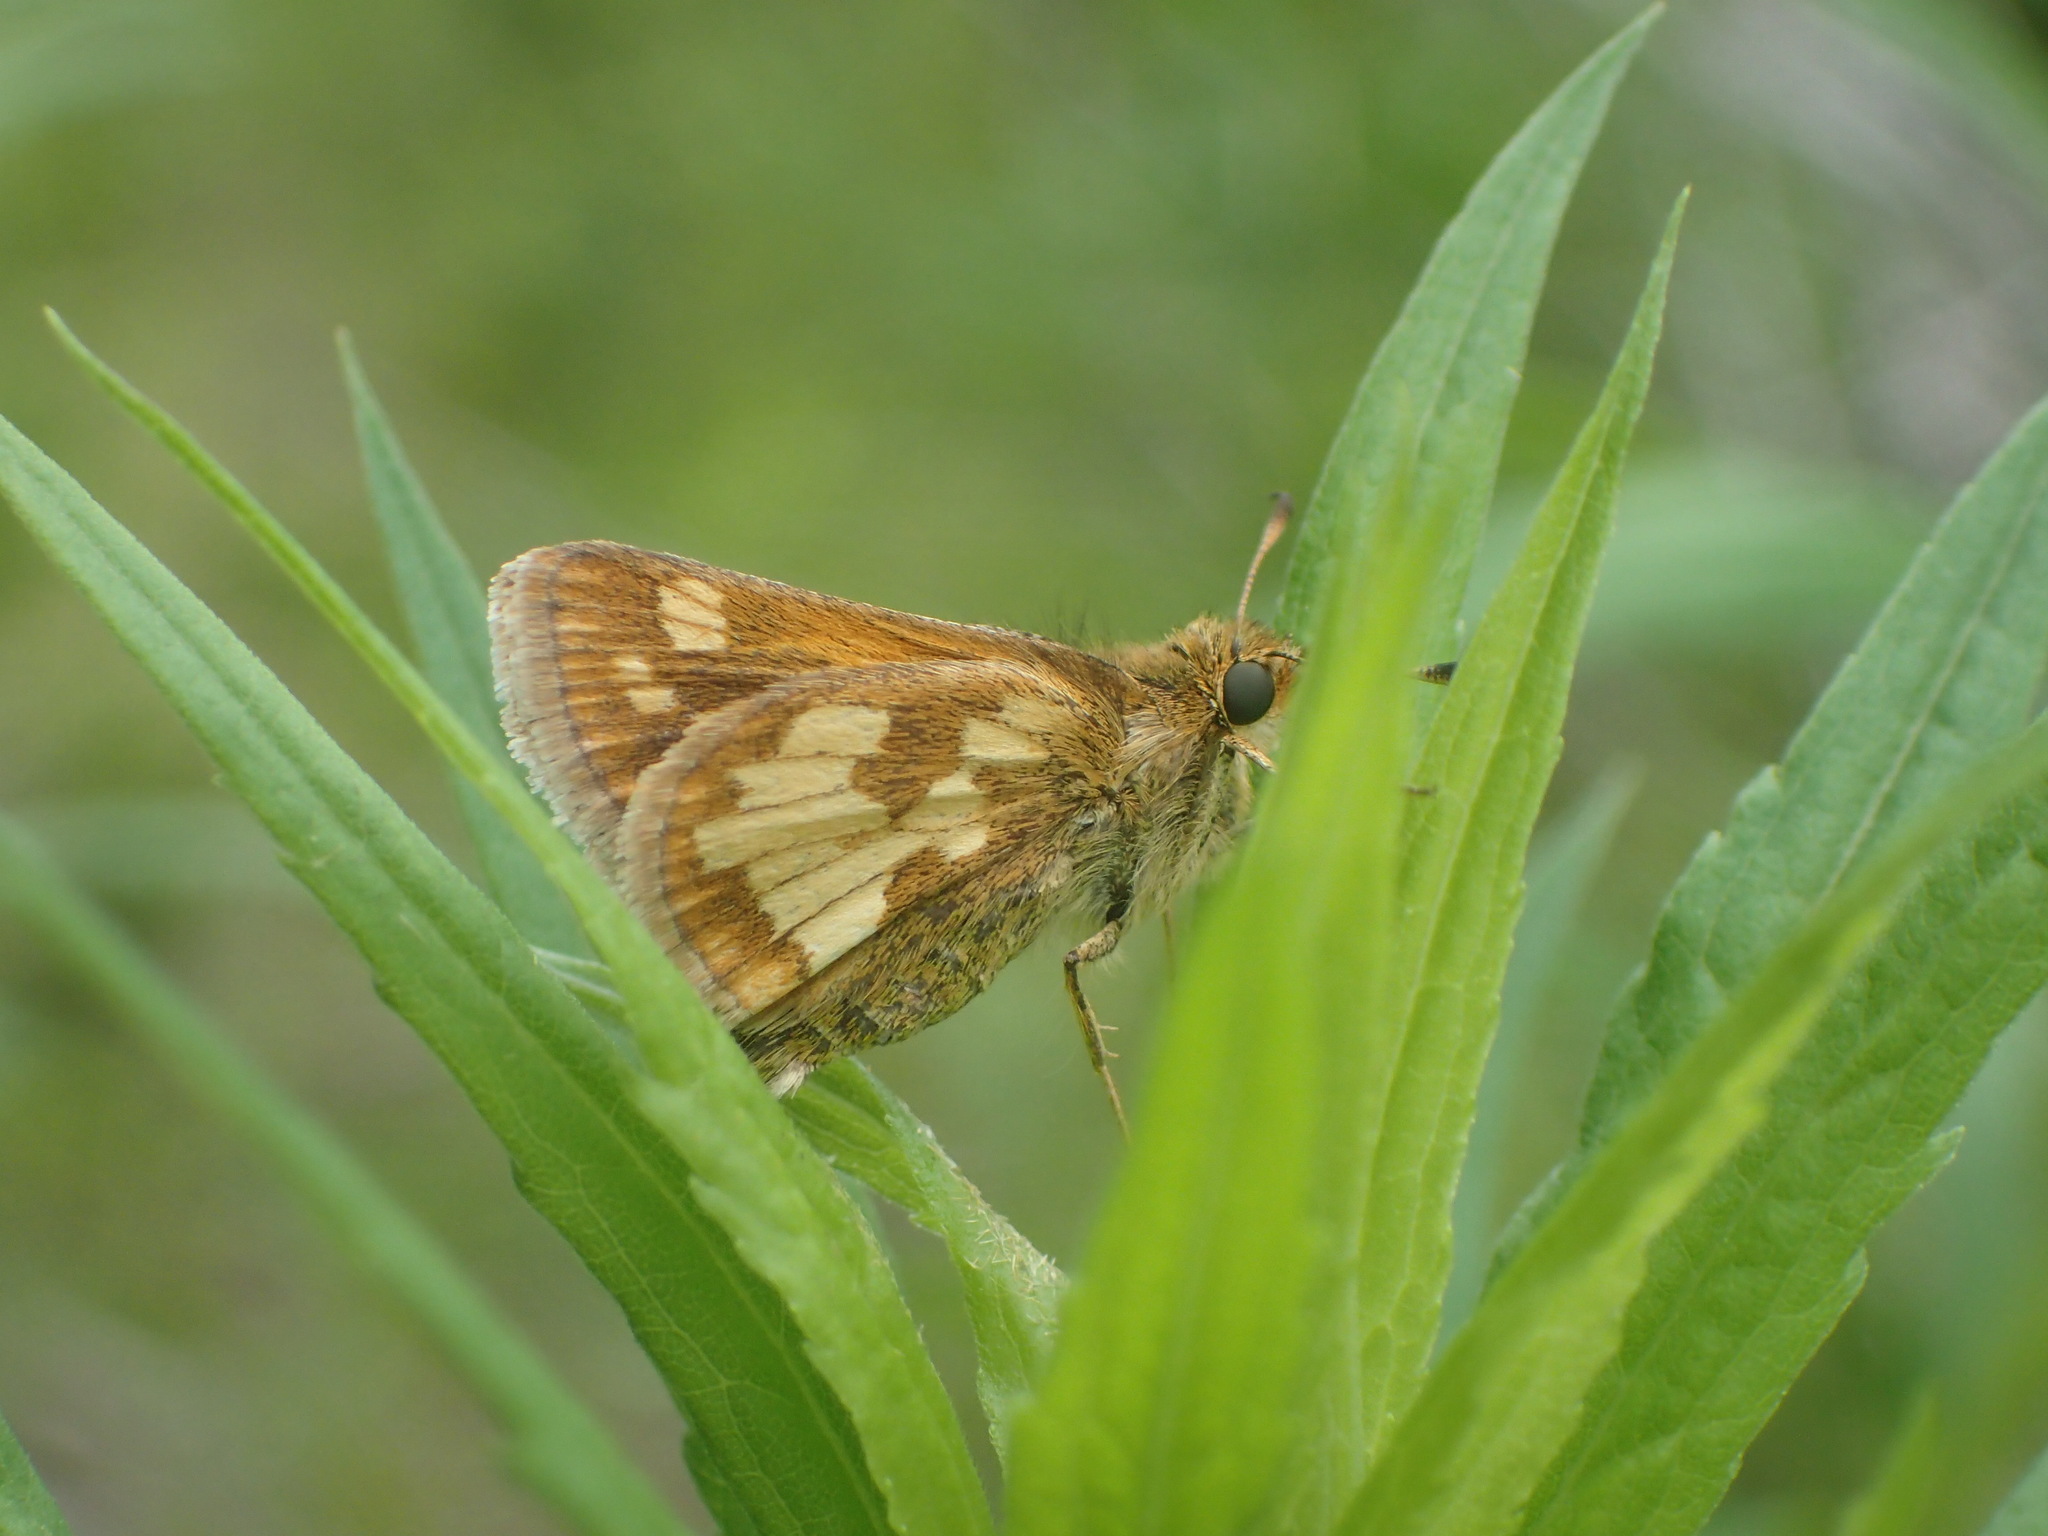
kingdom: Animalia
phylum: Arthropoda
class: Insecta
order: Lepidoptera
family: Hesperiidae
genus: Polites
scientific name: Polites coras
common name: Peck's skipper
